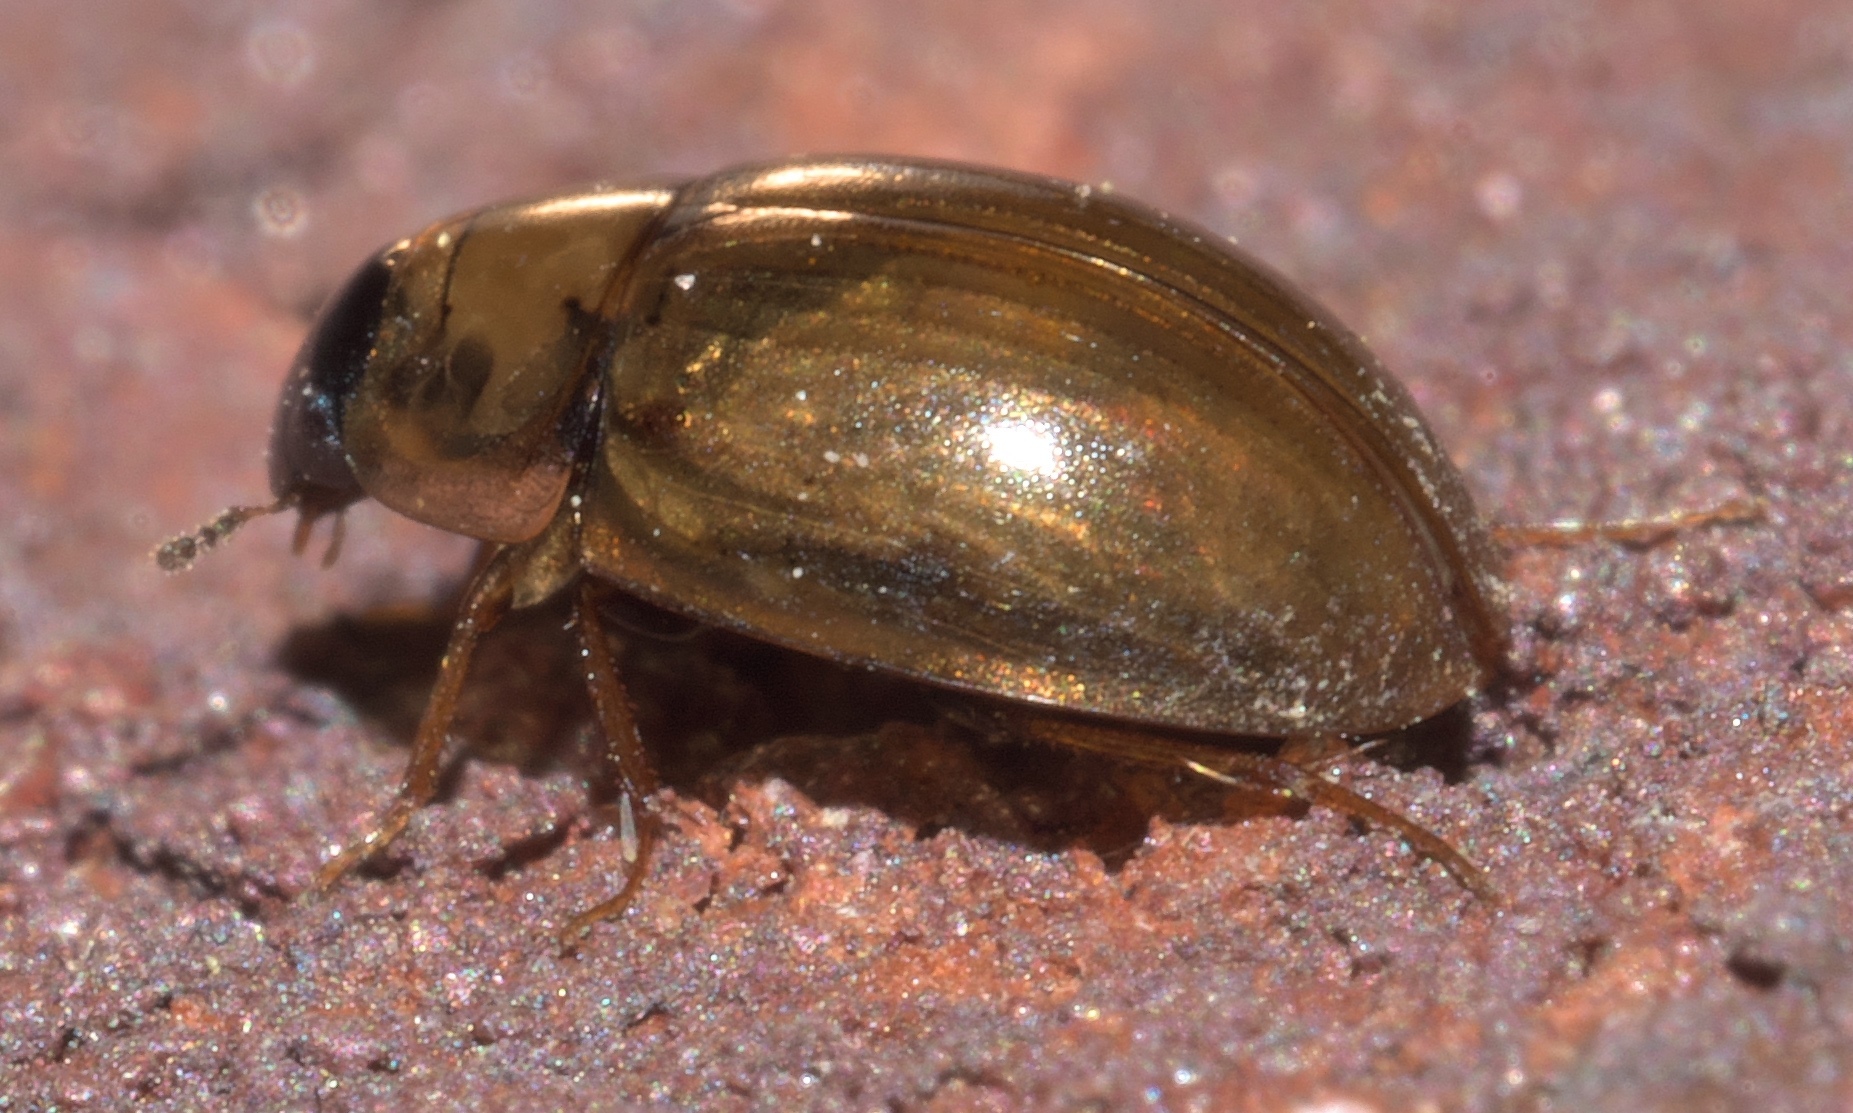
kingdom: Animalia
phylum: Arthropoda
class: Insecta
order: Coleoptera
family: Hydrophilidae
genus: Enochrus
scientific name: Enochrus
